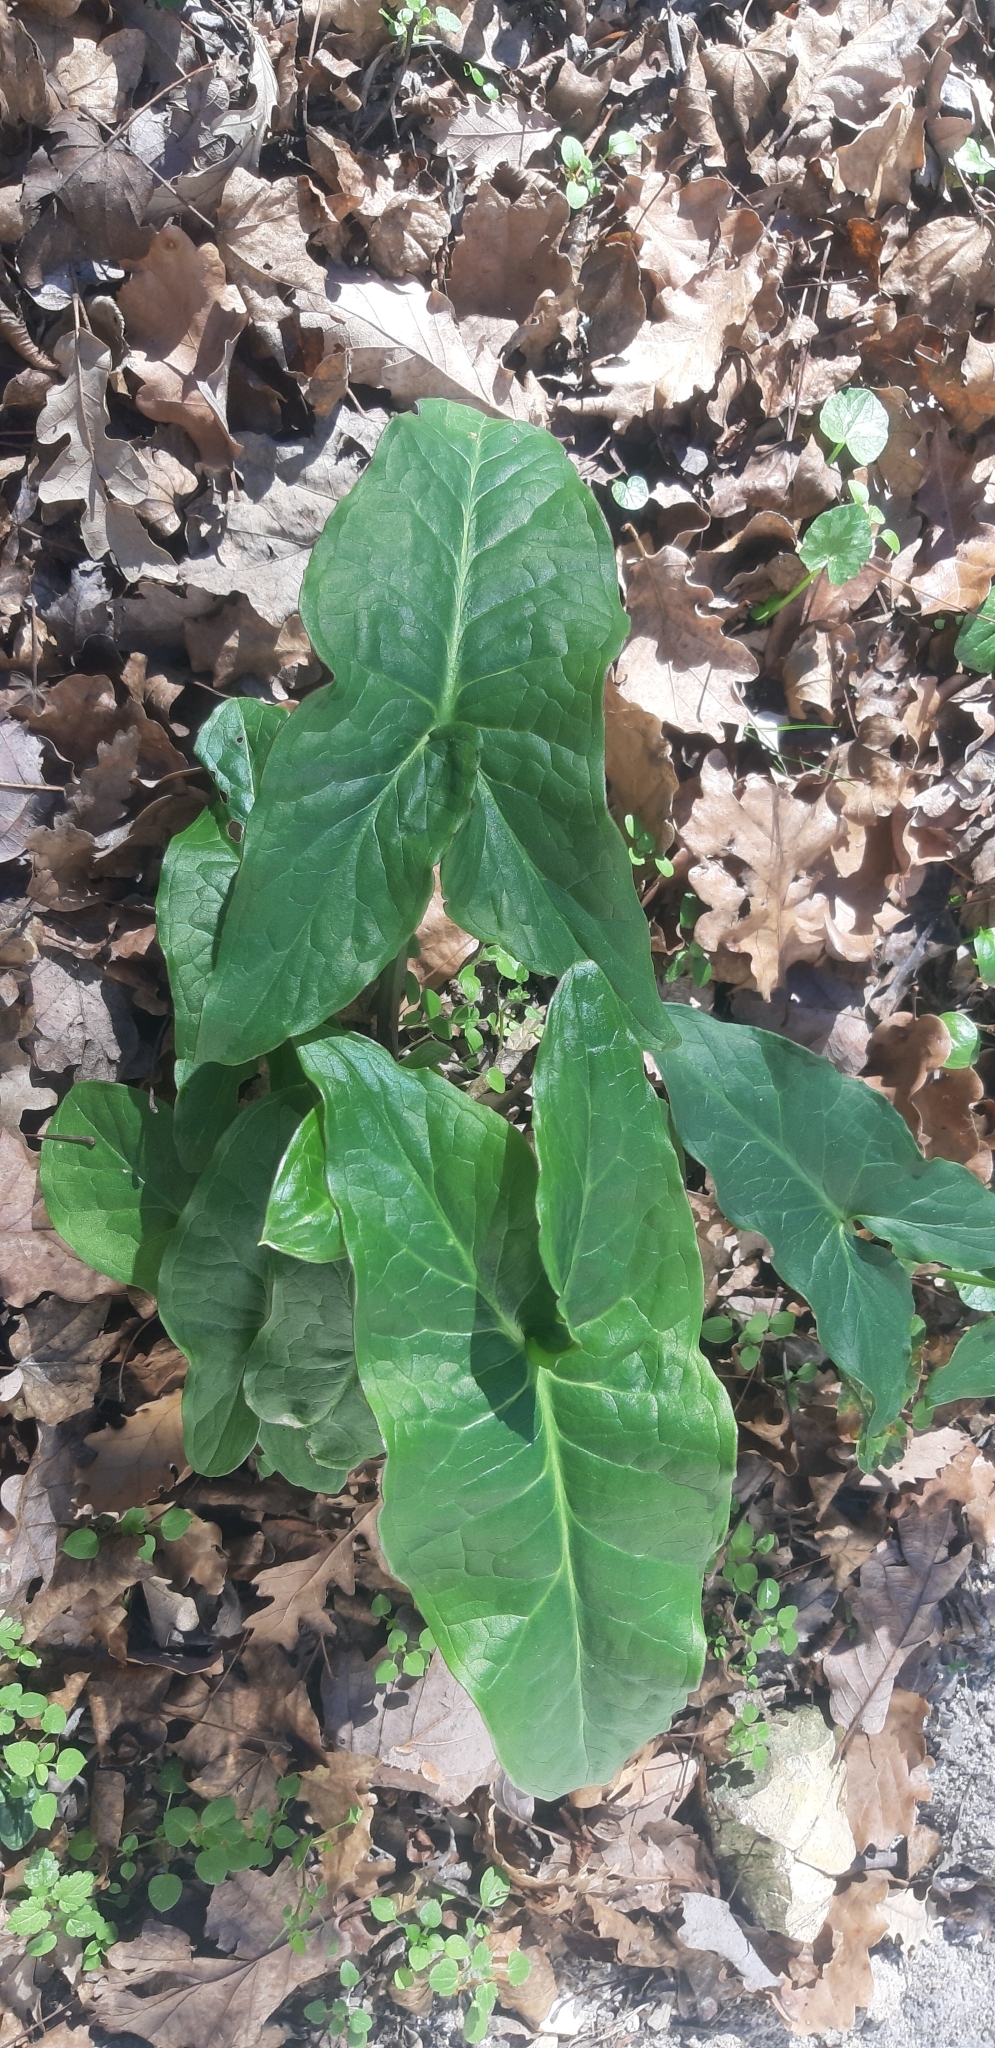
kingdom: Plantae
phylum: Tracheophyta
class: Liliopsida
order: Alismatales
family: Araceae
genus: Arum
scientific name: Arum italicum
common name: Italian lords-and-ladies
